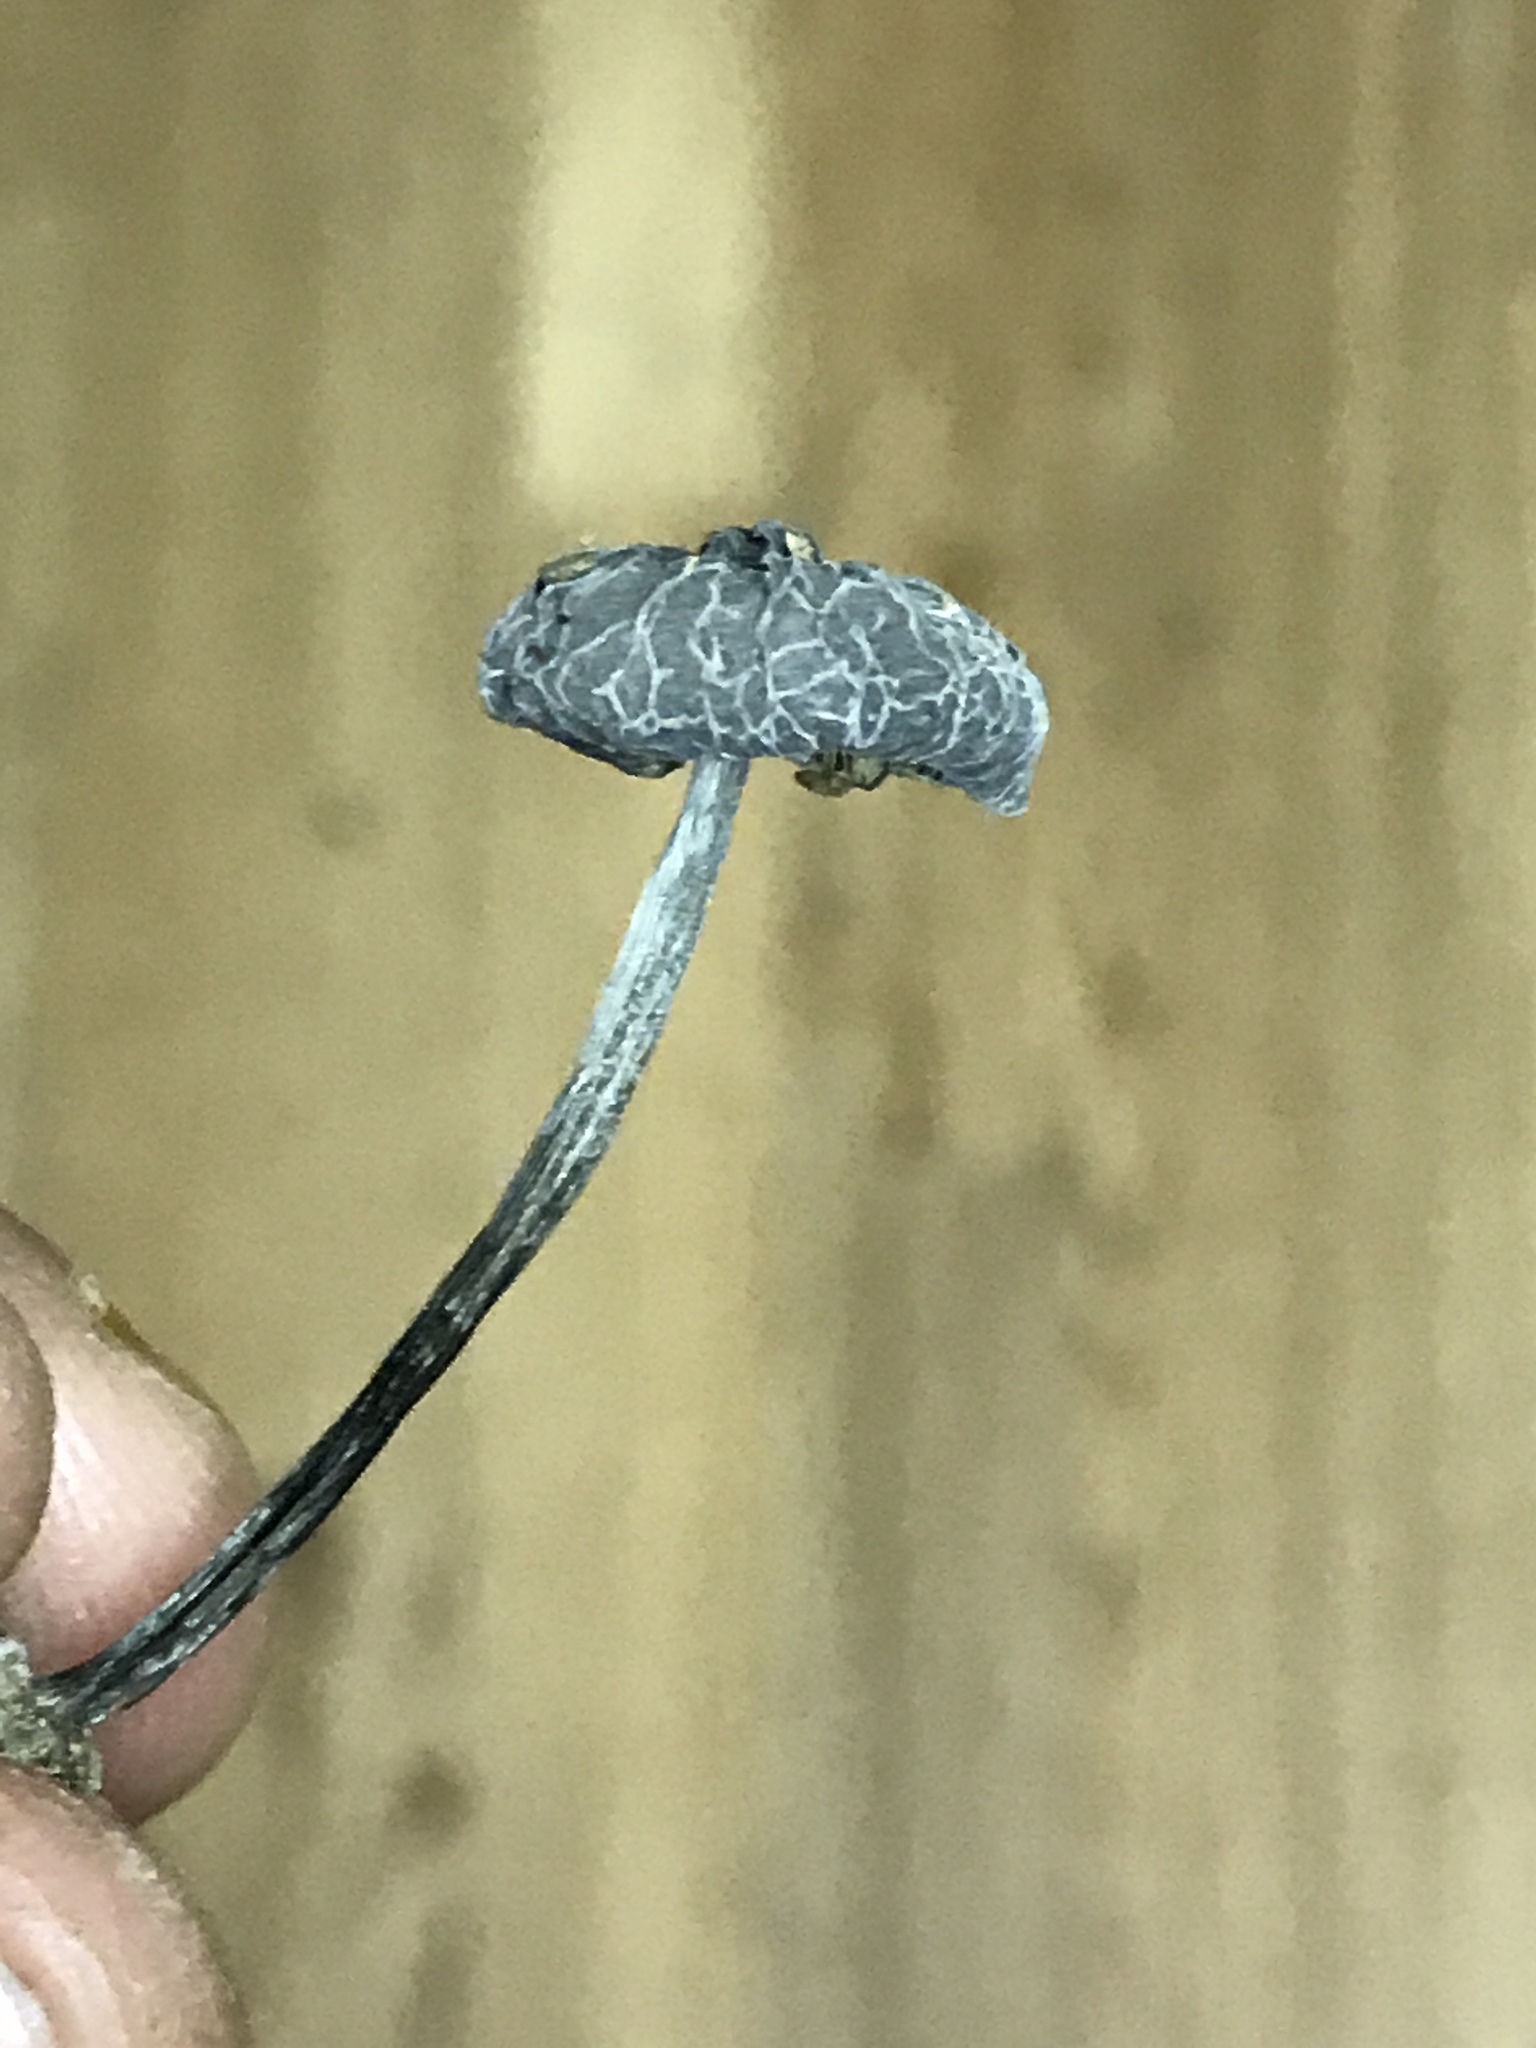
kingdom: Fungi
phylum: Basidiomycota
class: Agaricomycetes
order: Agaricales
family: Pluteaceae
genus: Pluteus
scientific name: Pluteus thomsonii
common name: Veined shield
